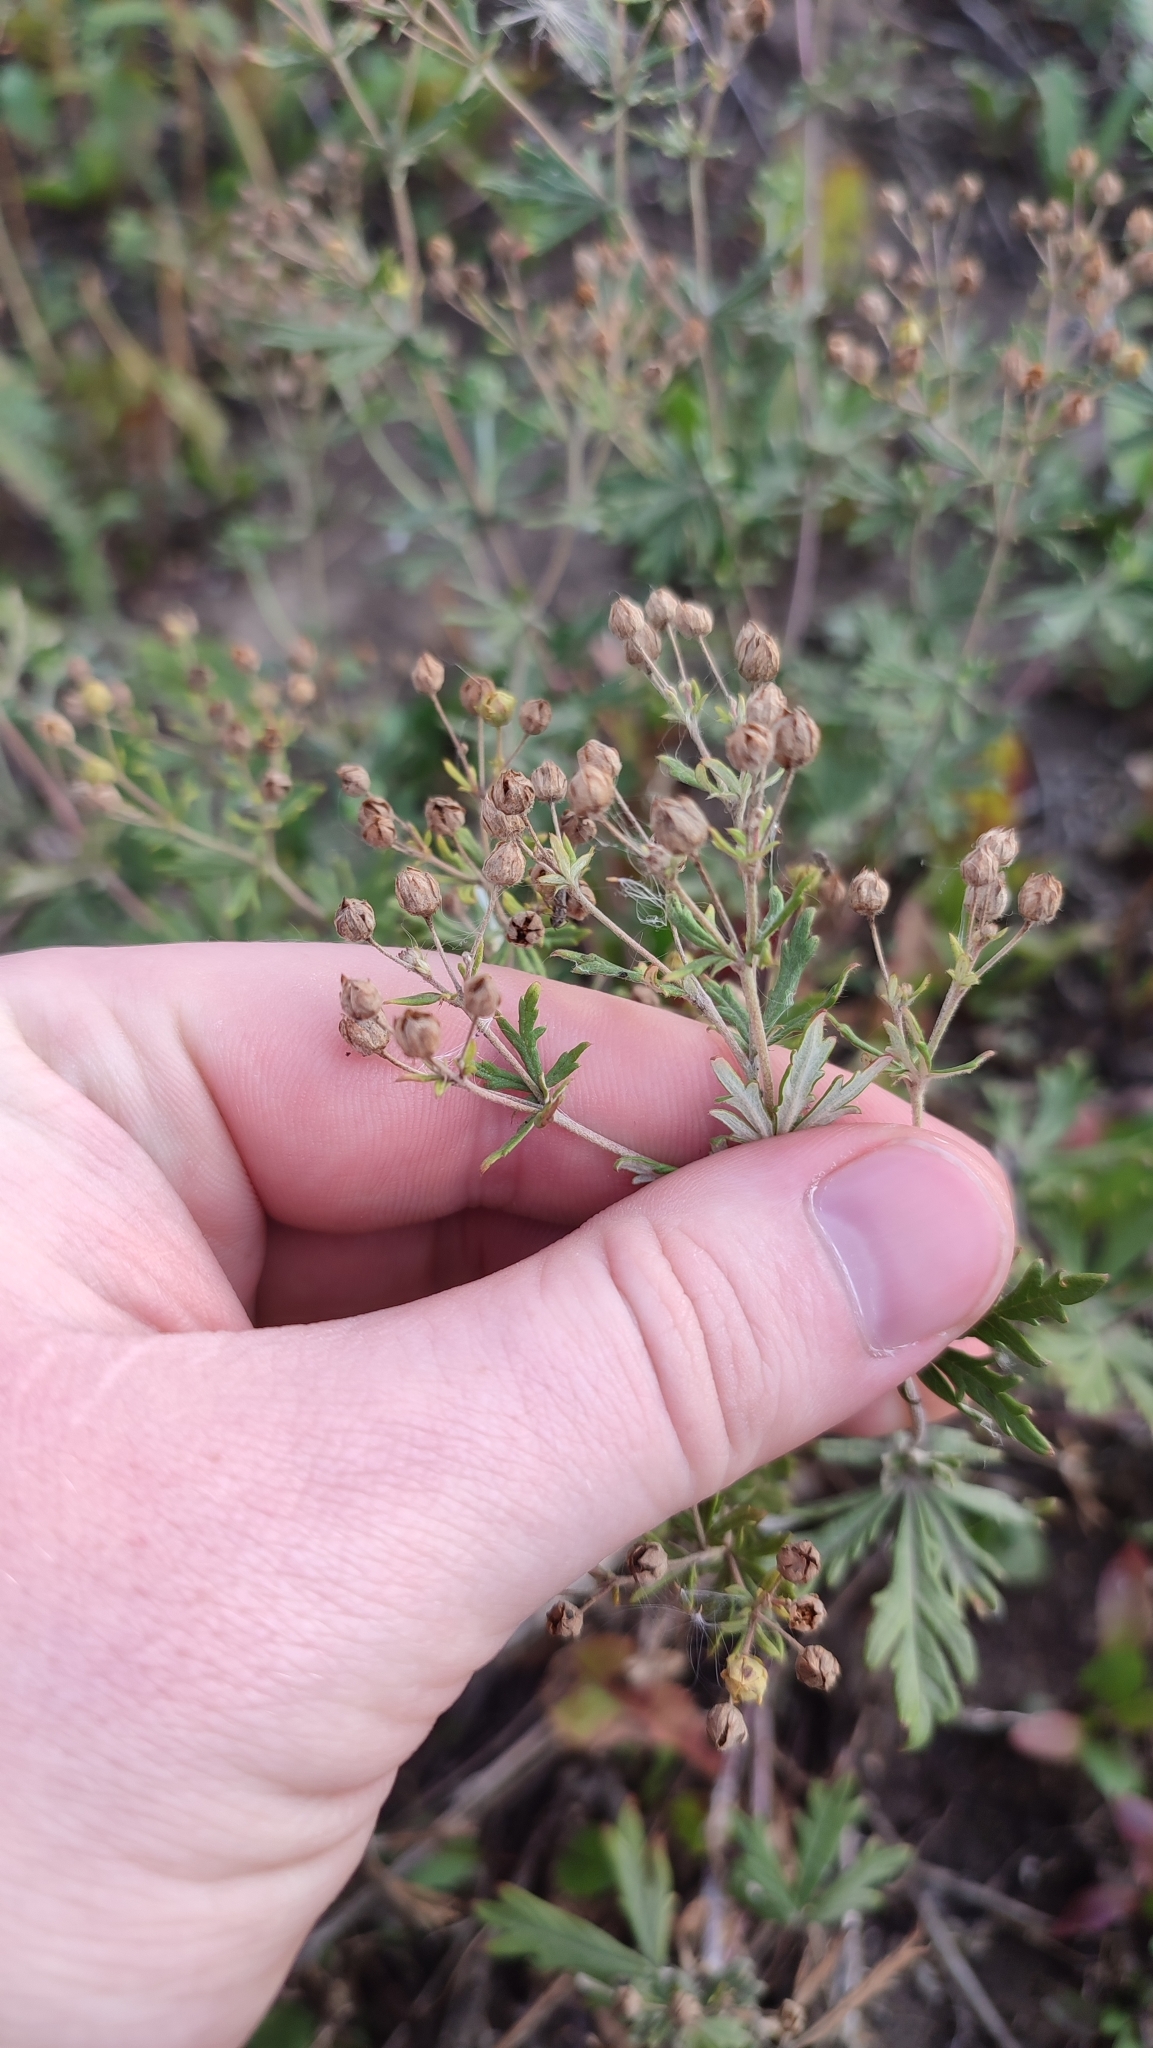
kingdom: Plantae
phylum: Tracheophyta
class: Magnoliopsida
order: Rosales
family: Rosaceae
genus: Potentilla
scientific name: Potentilla argentea
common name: Hoary cinquefoil
